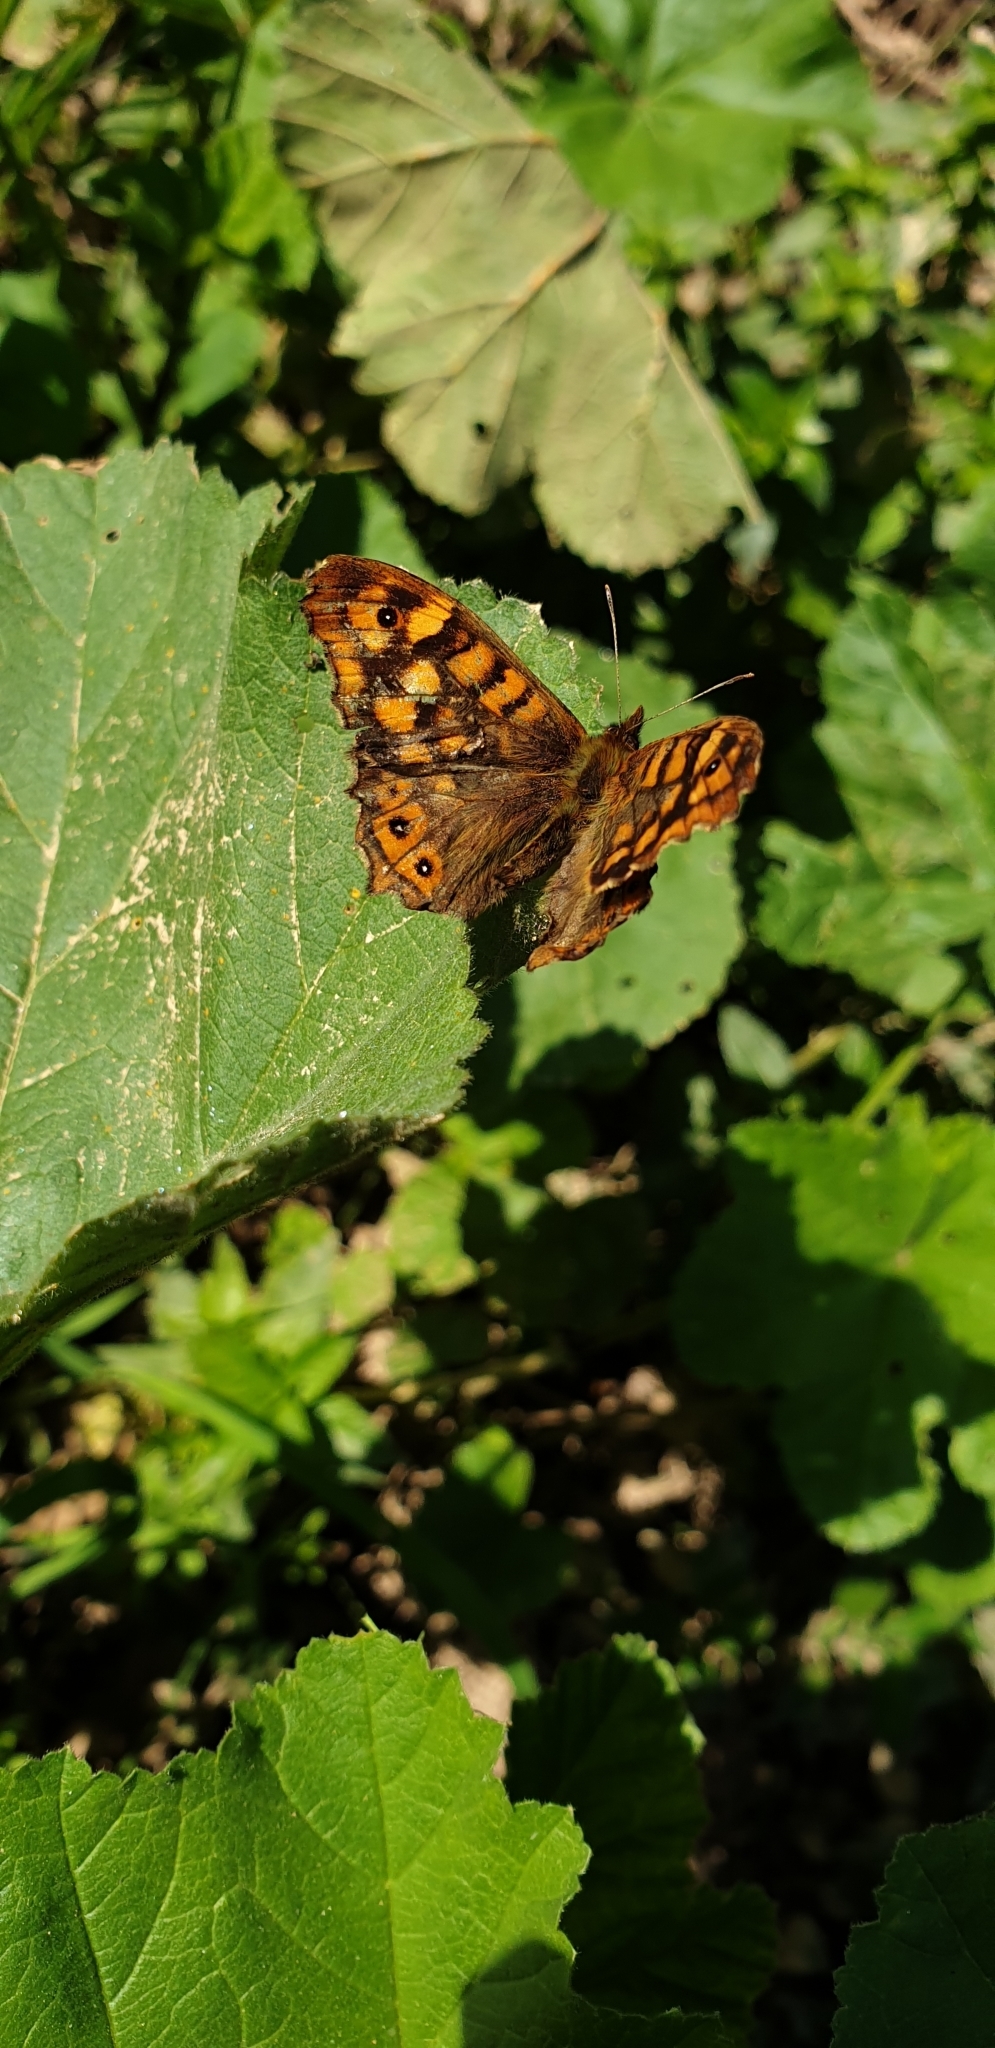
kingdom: Animalia
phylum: Arthropoda
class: Insecta
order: Lepidoptera
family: Nymphalidae
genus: Pararge
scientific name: Pararge aegeria
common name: Speckled wood
